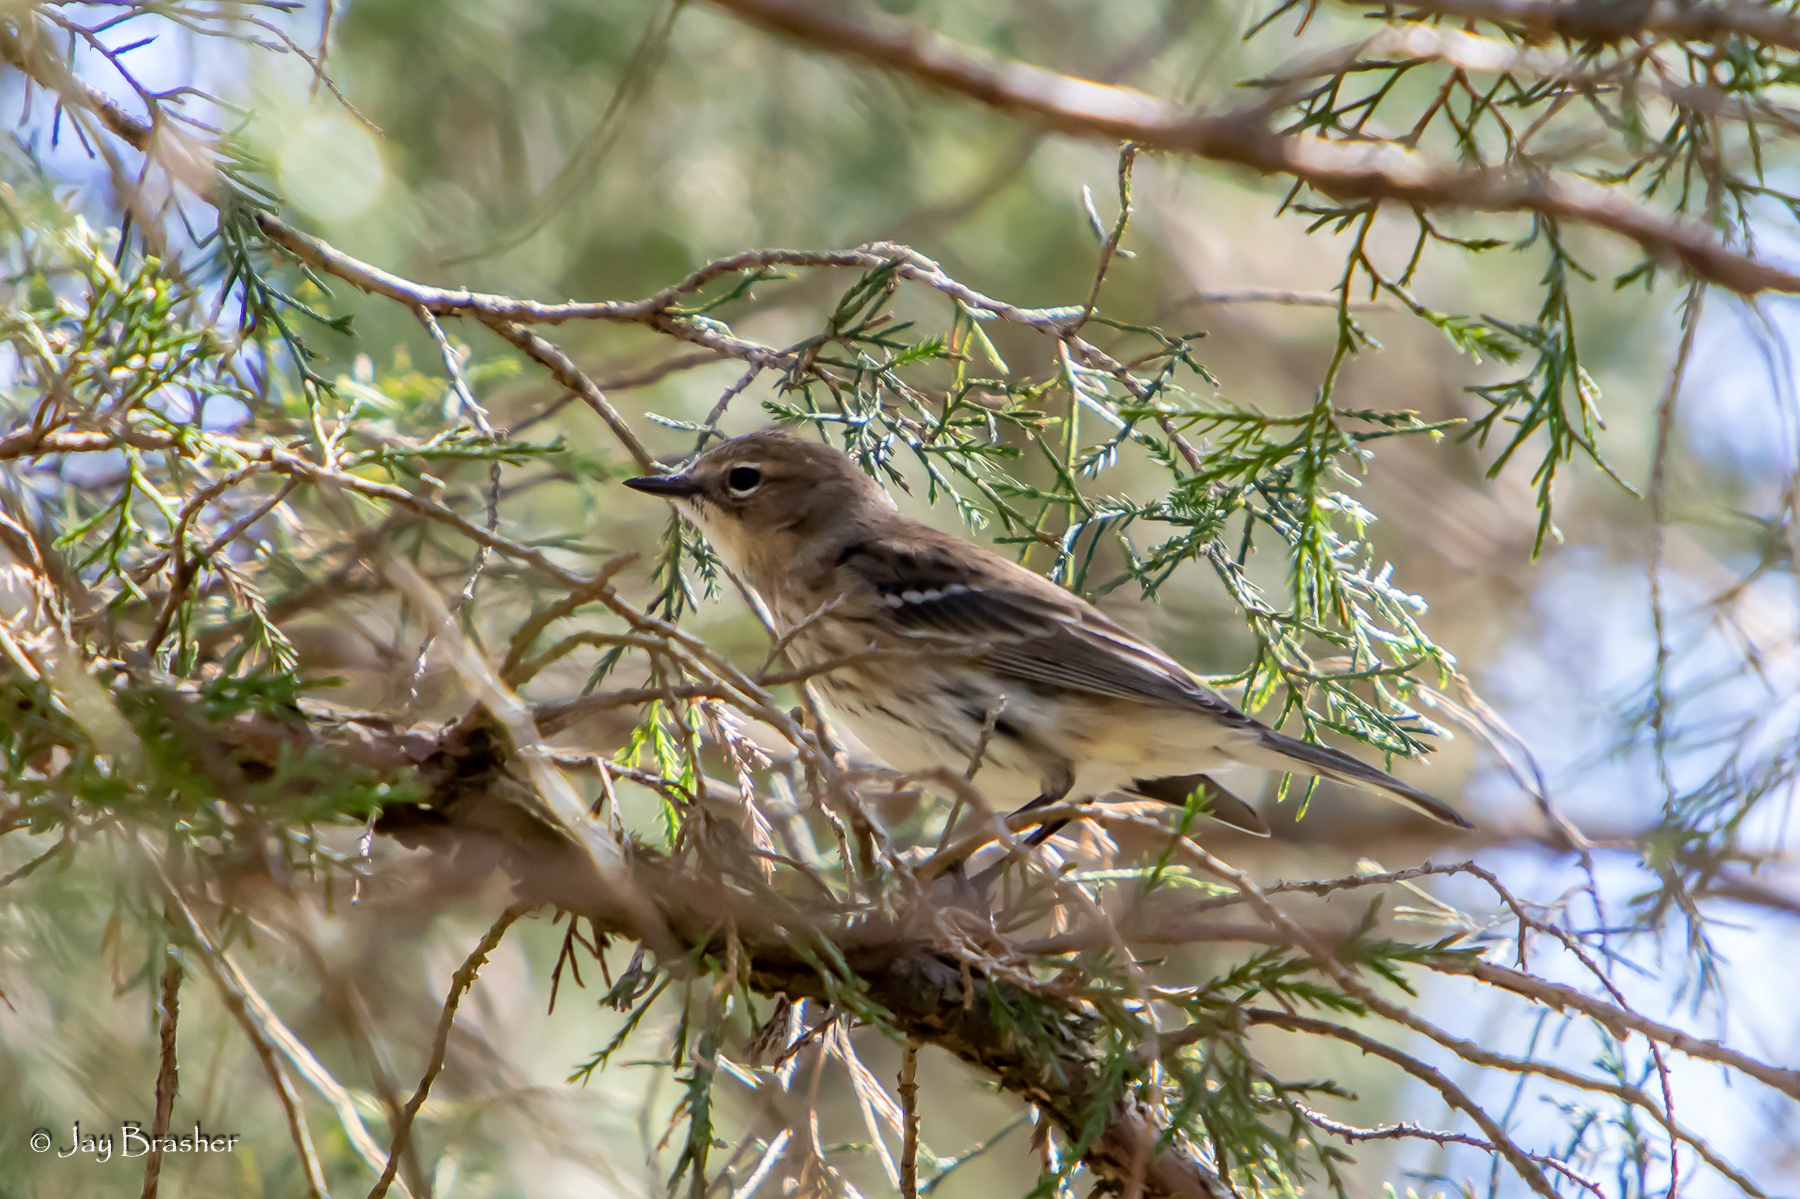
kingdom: Animalia
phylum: Chordata
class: Aves
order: Passeriformes
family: Parulidae
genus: Setophaga
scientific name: Setophaga coronata
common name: Myrtle warbler
